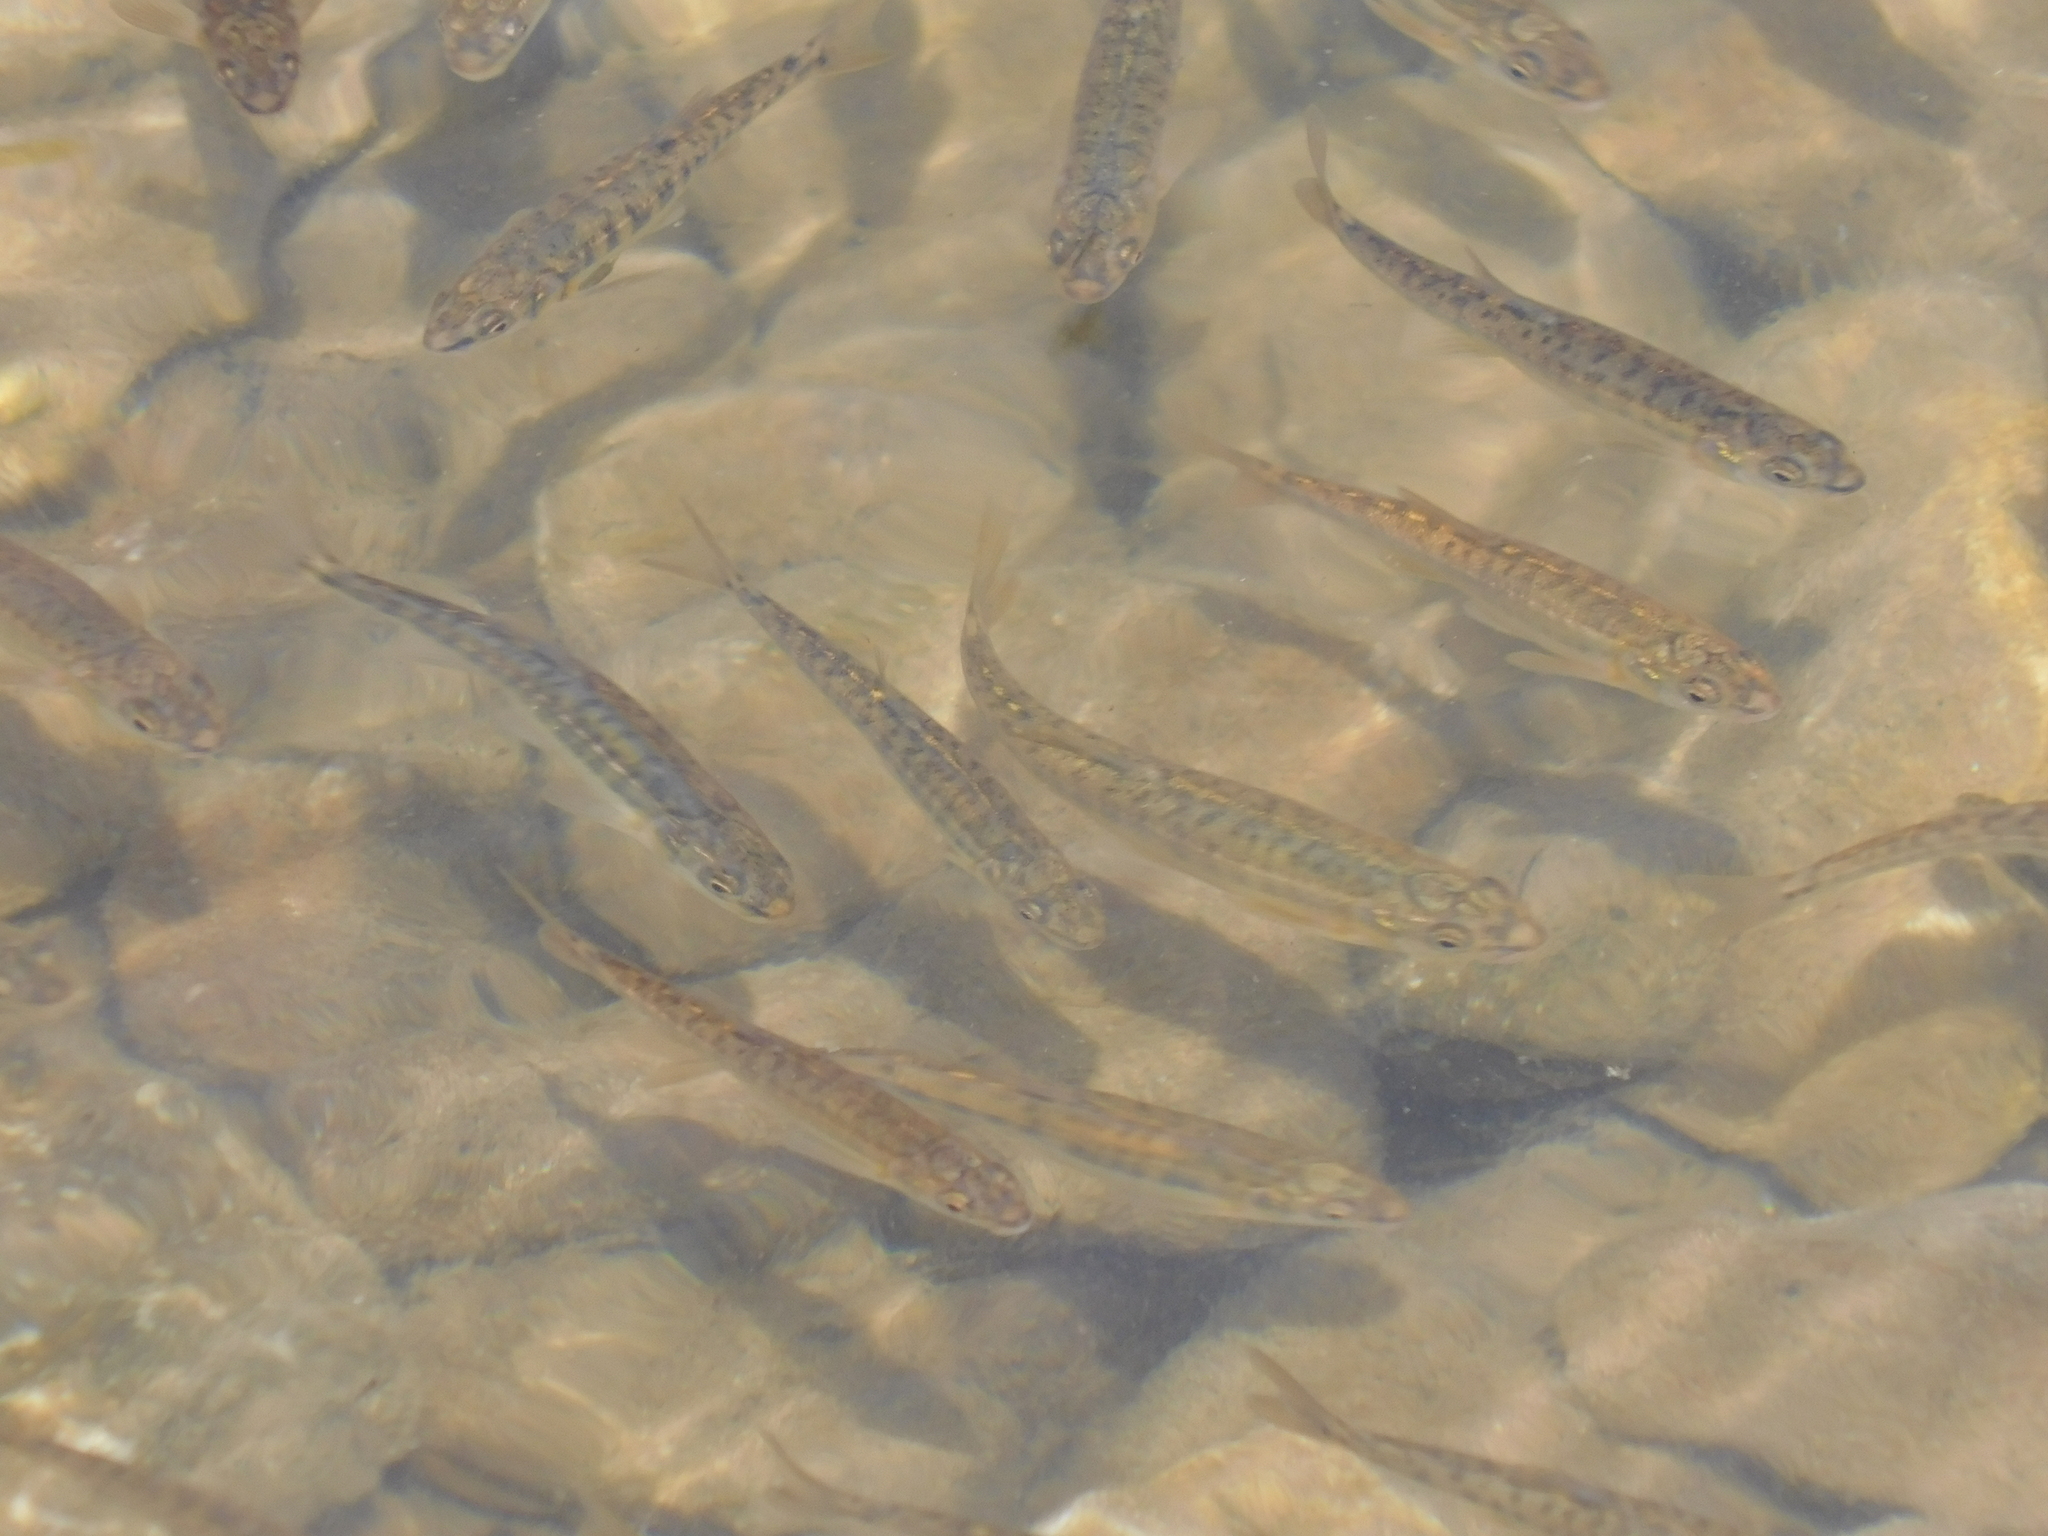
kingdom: Animalia
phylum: Chordata
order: Cypriniformes
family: Cyprinidae
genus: Phoxinus
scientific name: Phoxinus phoxinus
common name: Minnow
